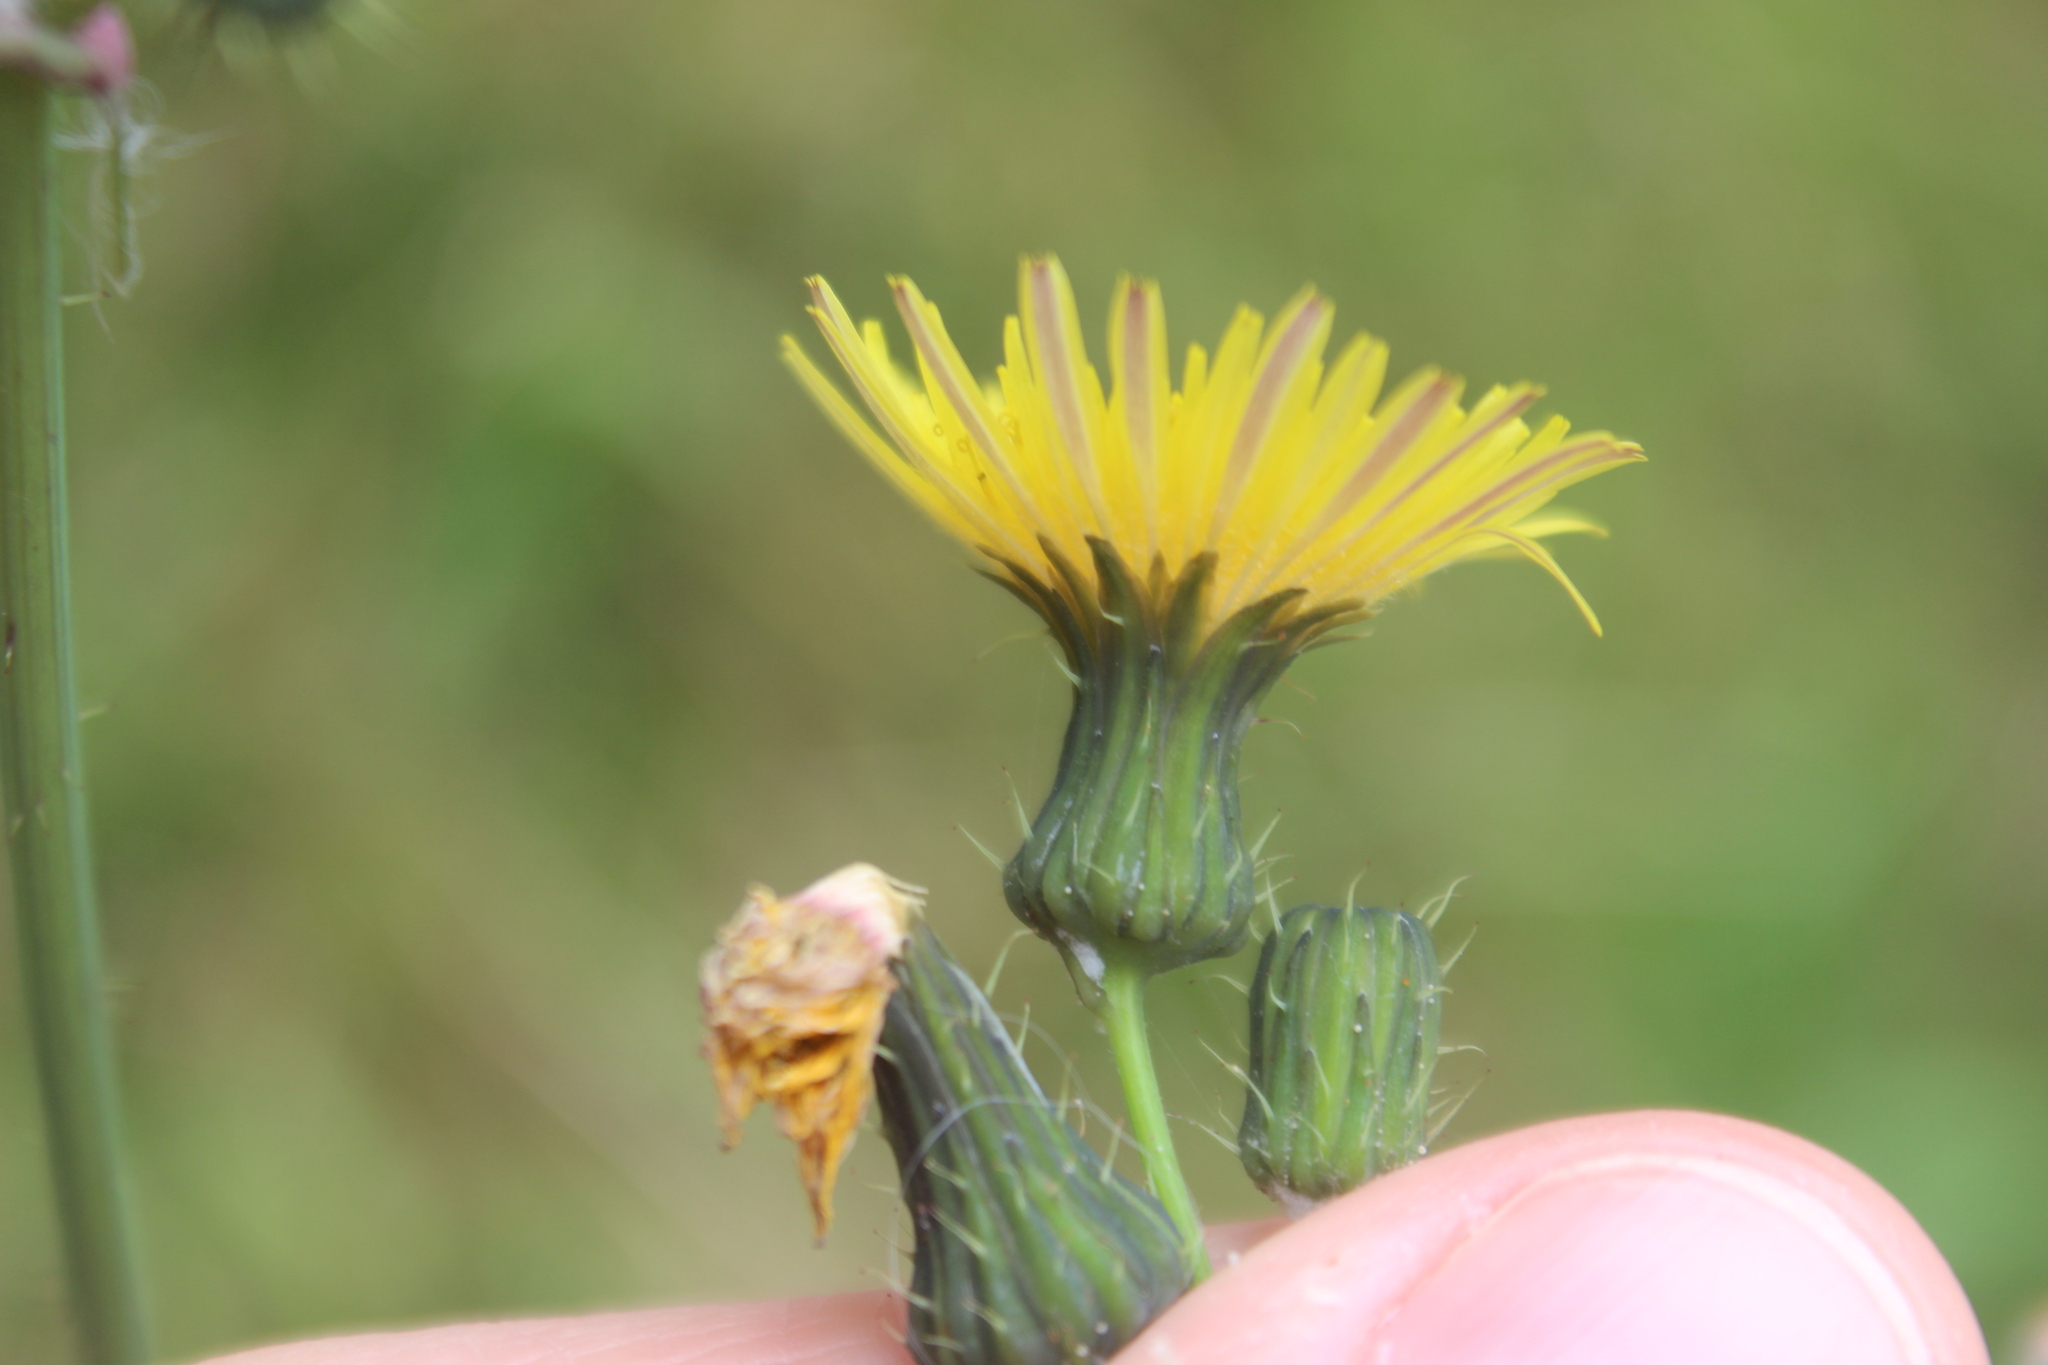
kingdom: Plantae
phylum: Tracheophyta
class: Magnoliopsida
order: Asterales
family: Asteraceae
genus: Sonchus
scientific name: Sonchus asper
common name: Prickly sow-thistle
